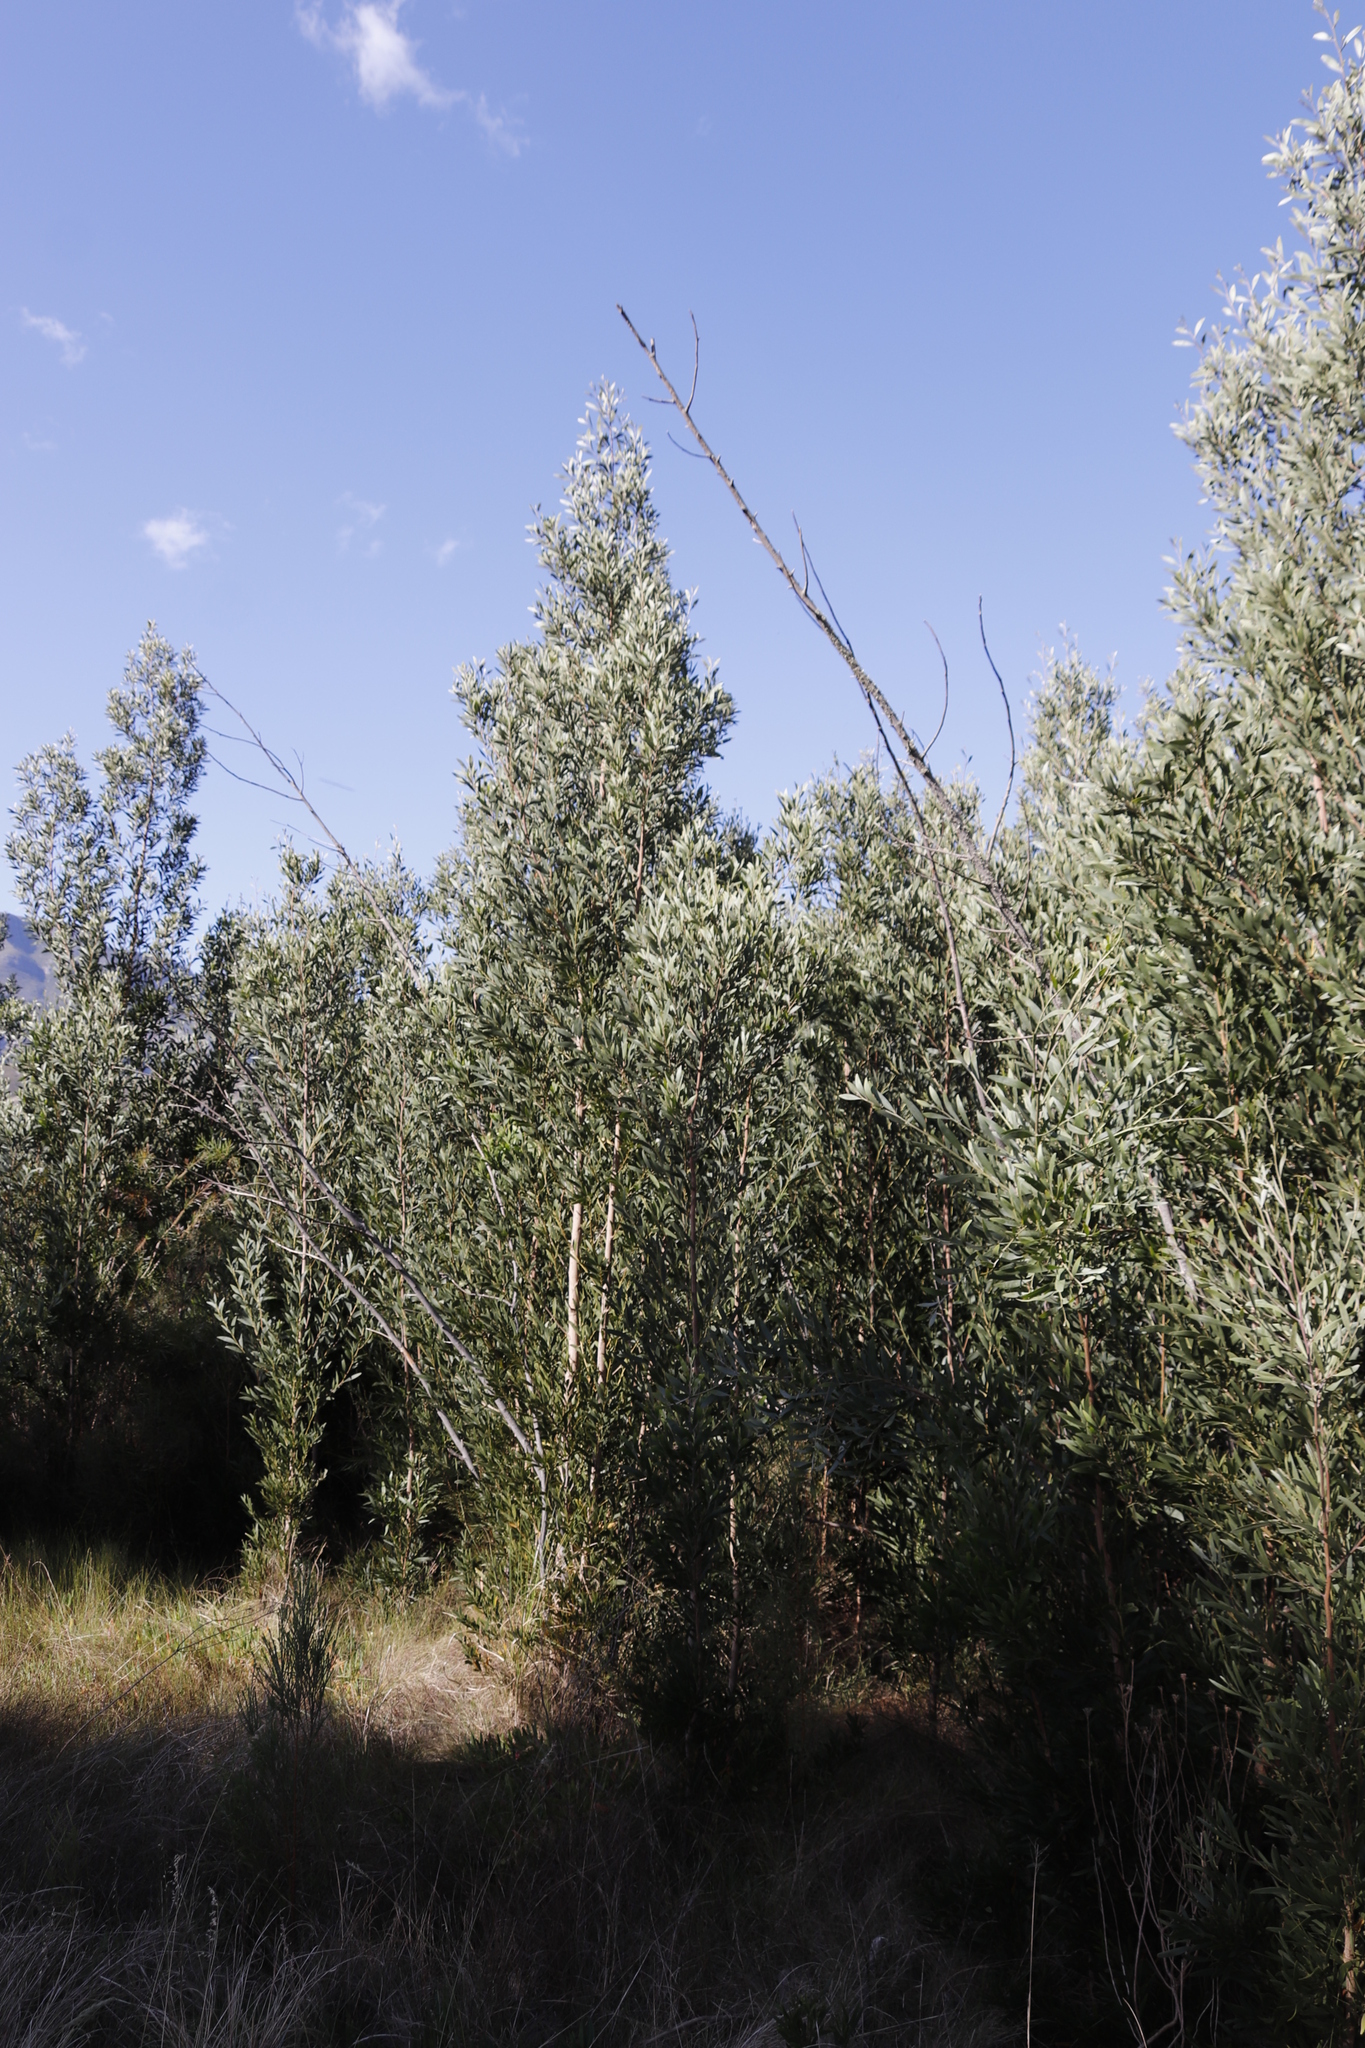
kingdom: Plantae
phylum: Tracheophyta
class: Magnoliopsida
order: Fabales
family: Fabaceae
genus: Acacia
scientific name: Acacia melanoxylon
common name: Blackwood
